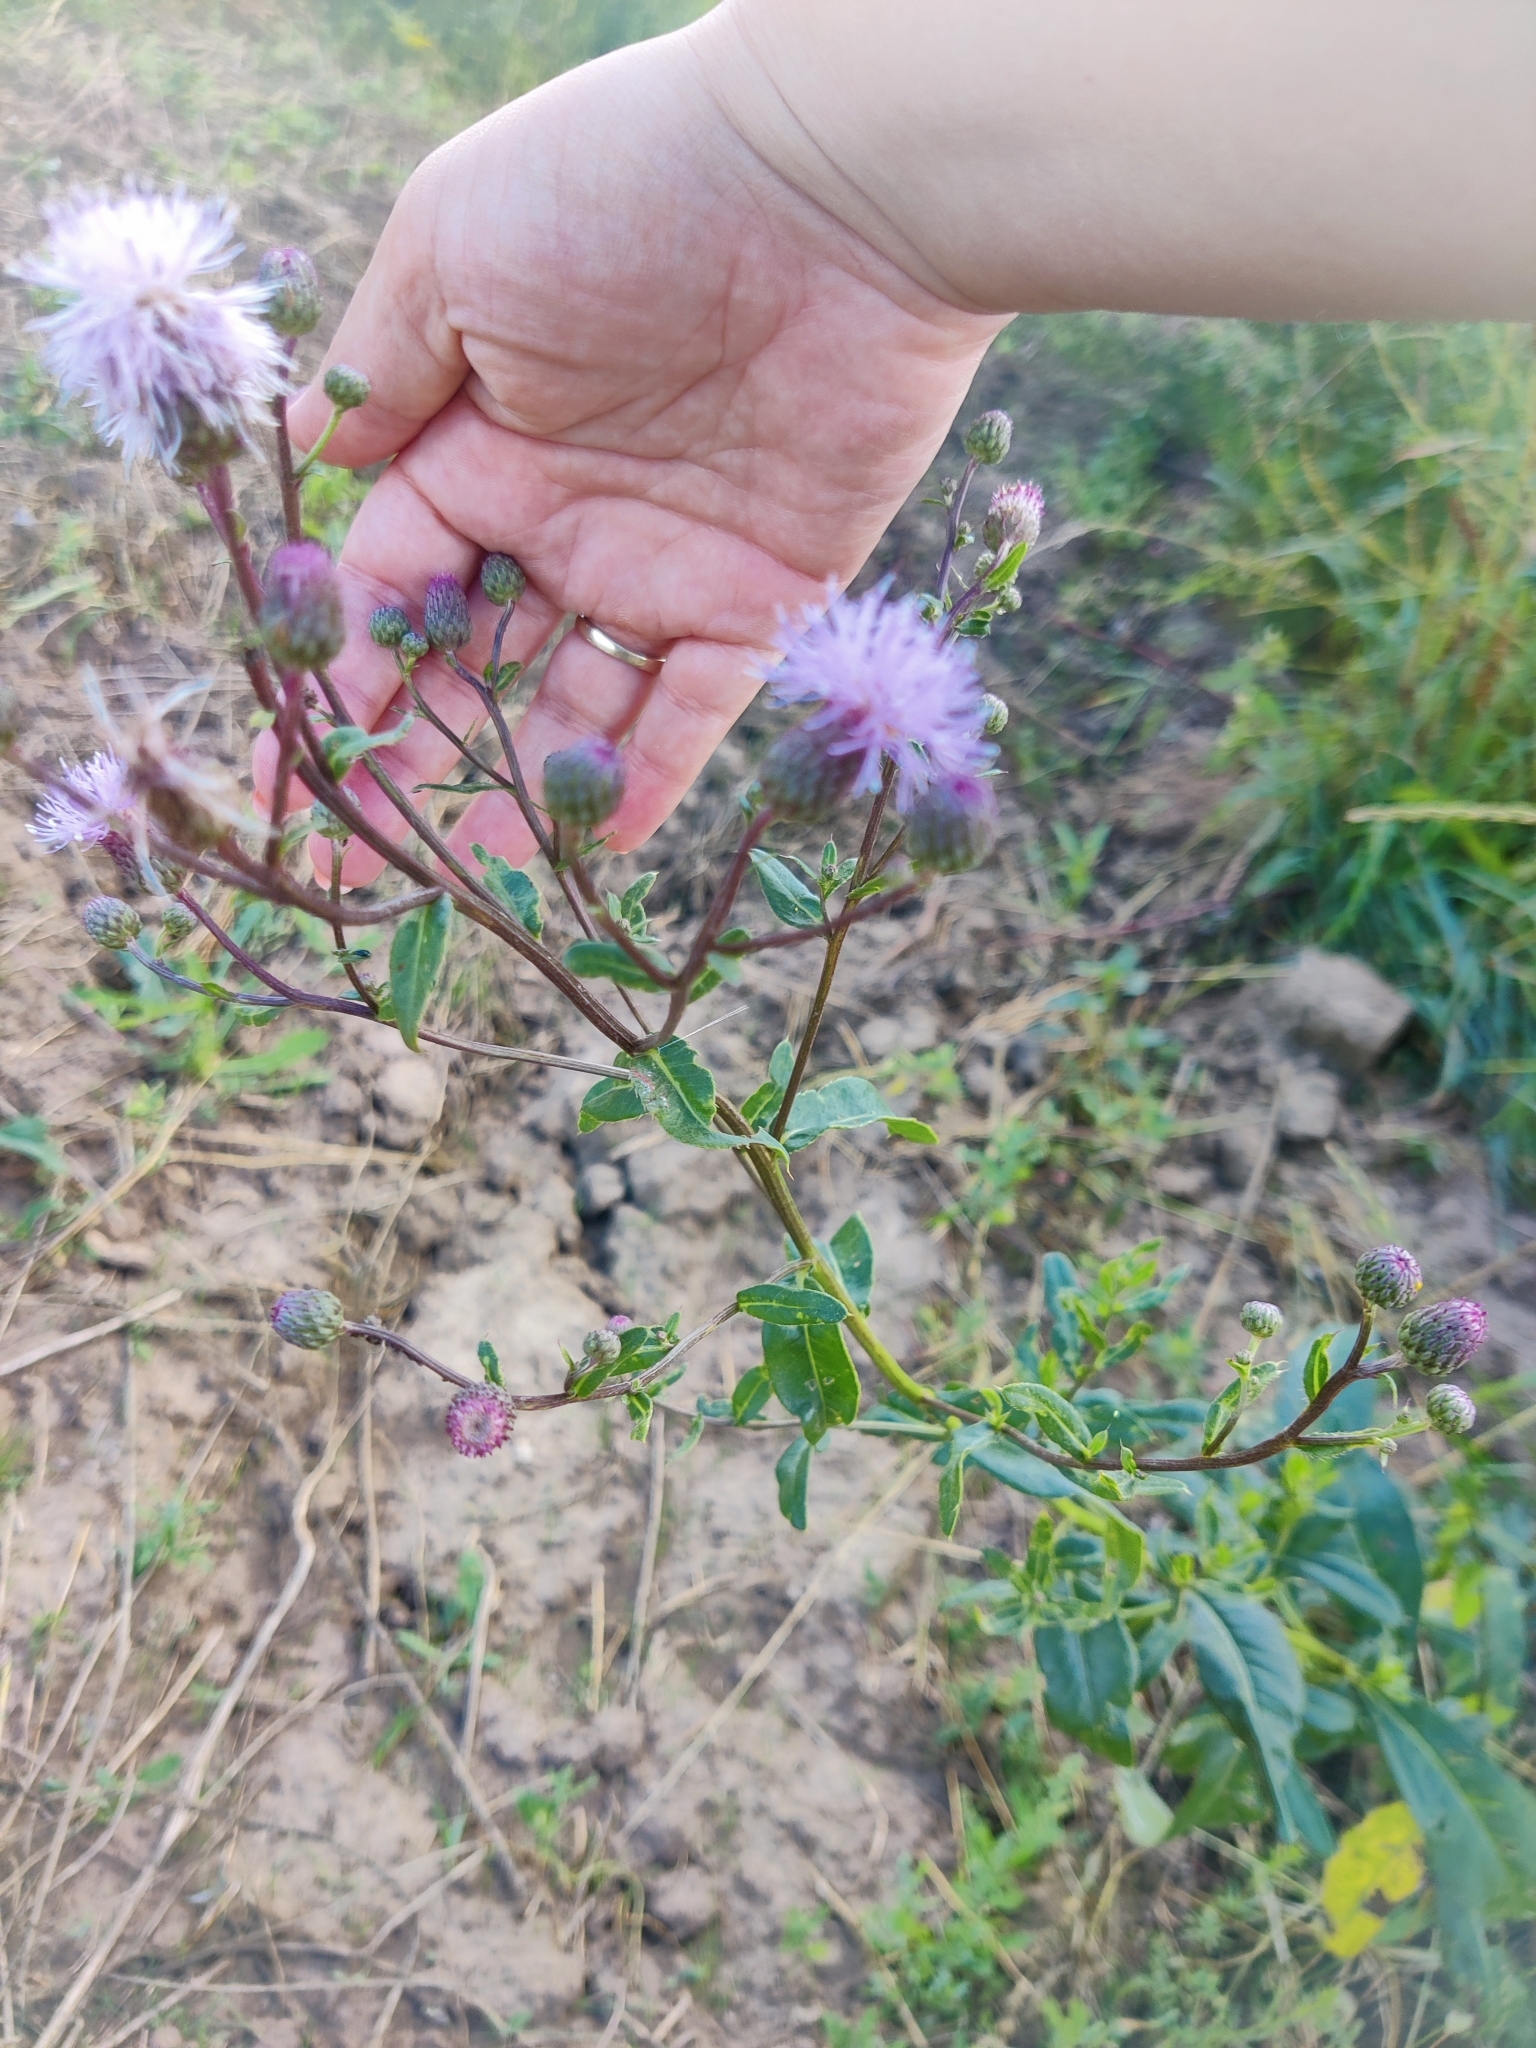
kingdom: Plantae
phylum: Tracheophyta
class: Magnoliopsida
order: Asterales
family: Asteraceae
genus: Cirsium
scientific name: Cirsium arvense
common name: Creeping thistle
